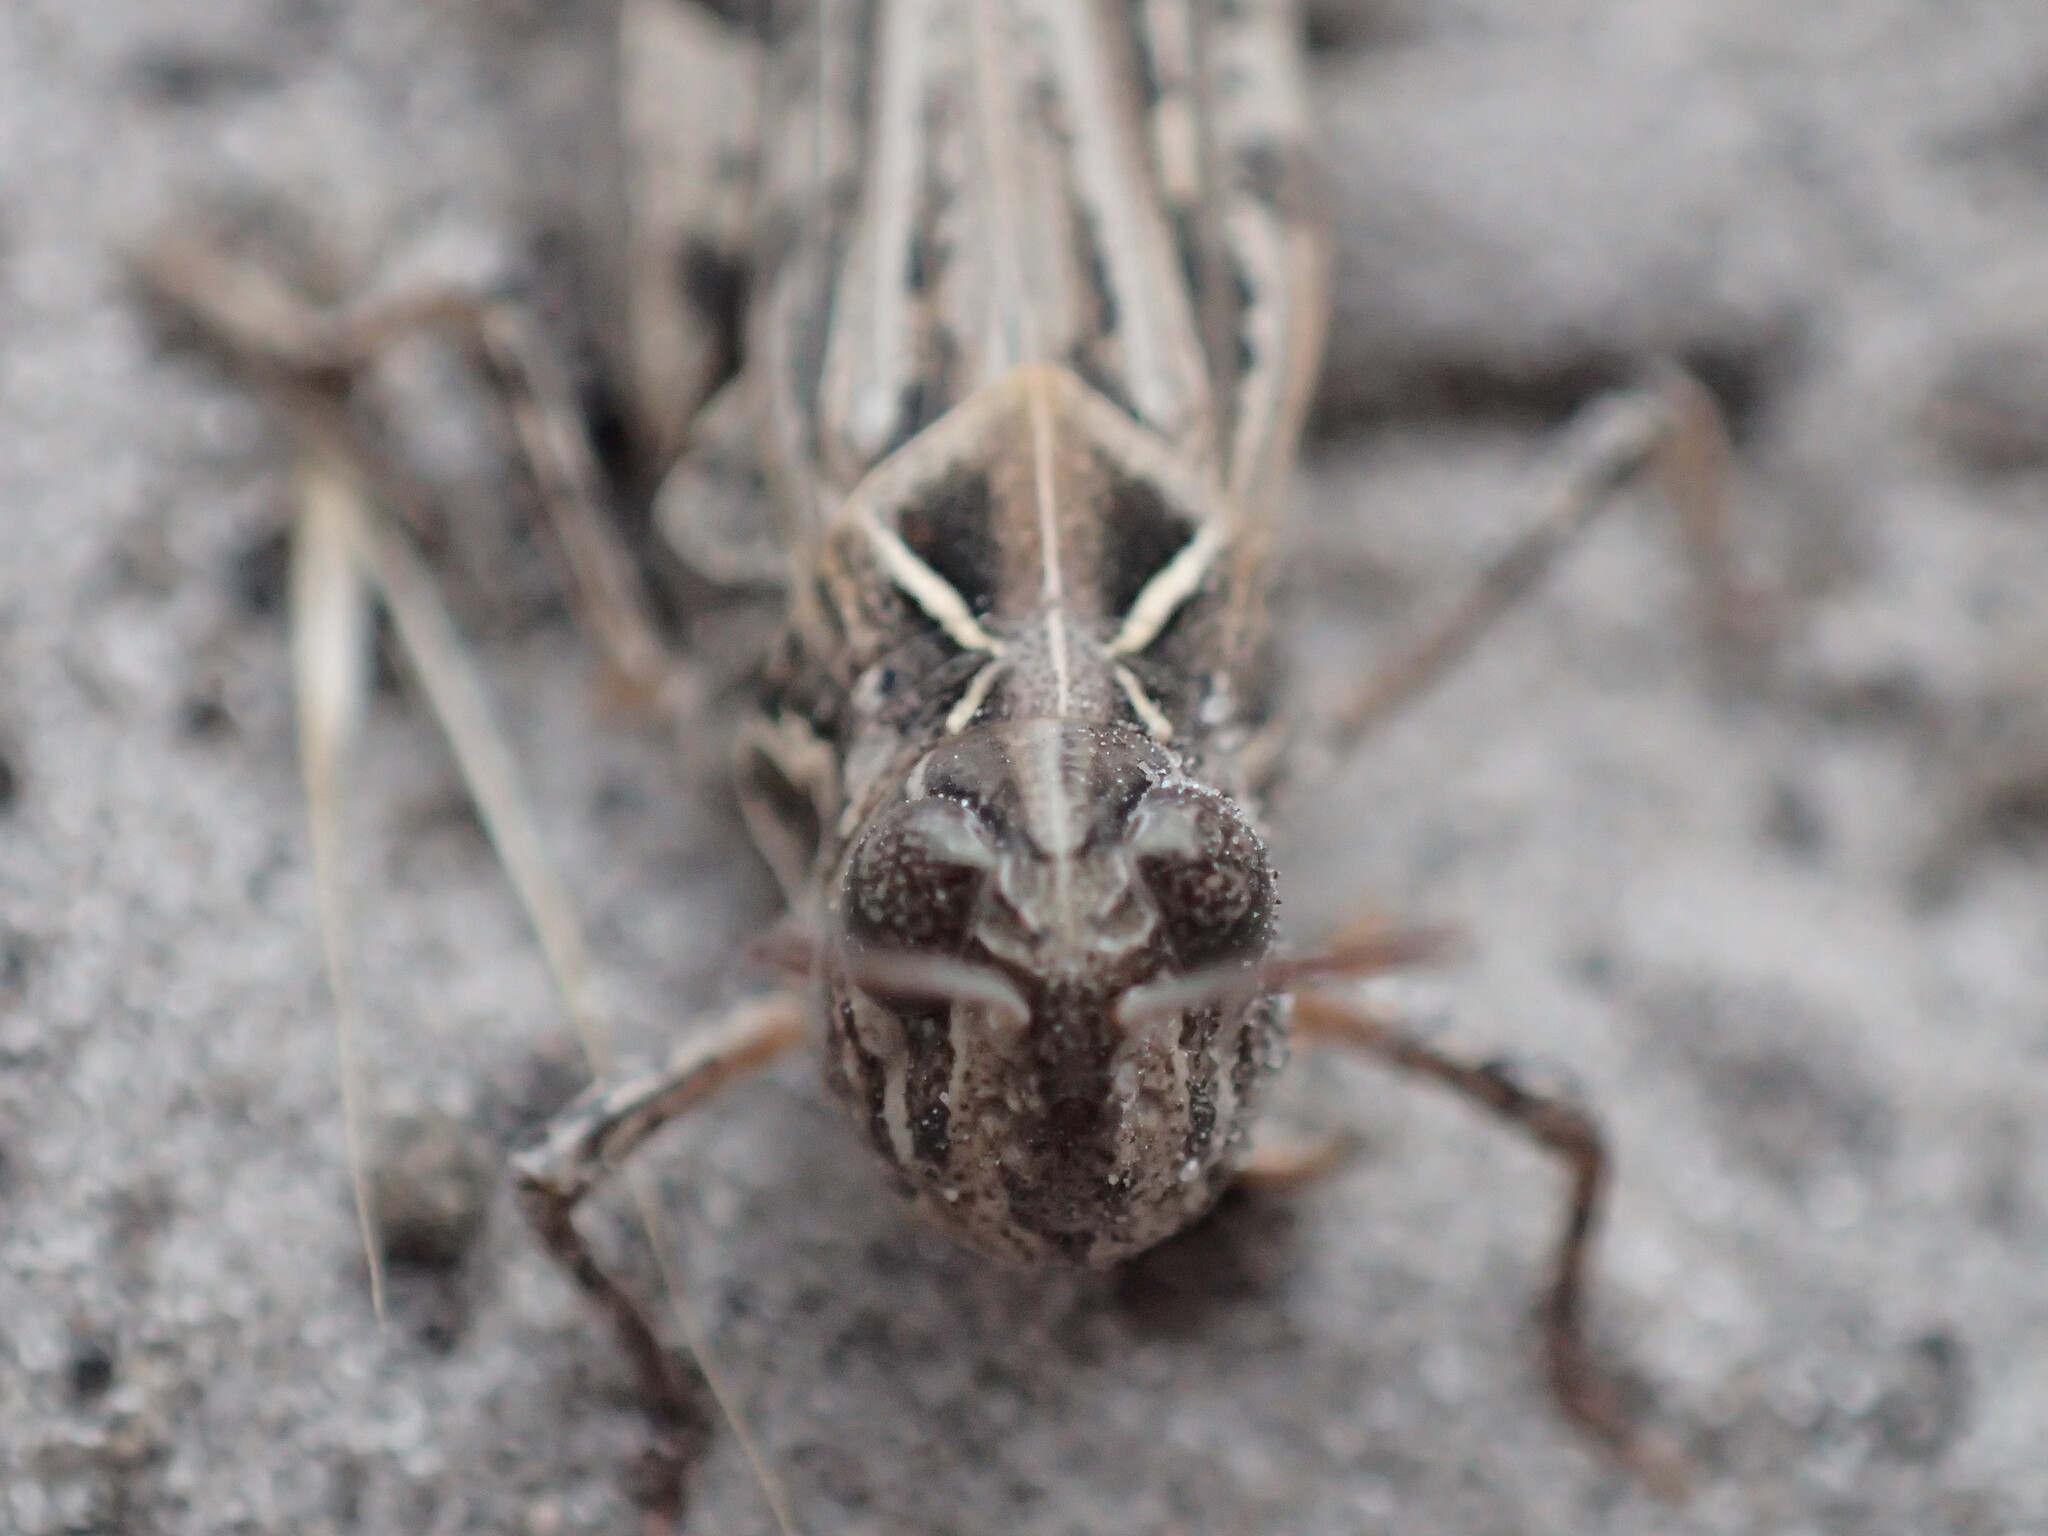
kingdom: Animalia
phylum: Arthropoda
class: Insecta
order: Orthoptera
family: Acrididae
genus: Austroicetes
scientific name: Austroicetes vulgaris
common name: Southeastern austroicetes
